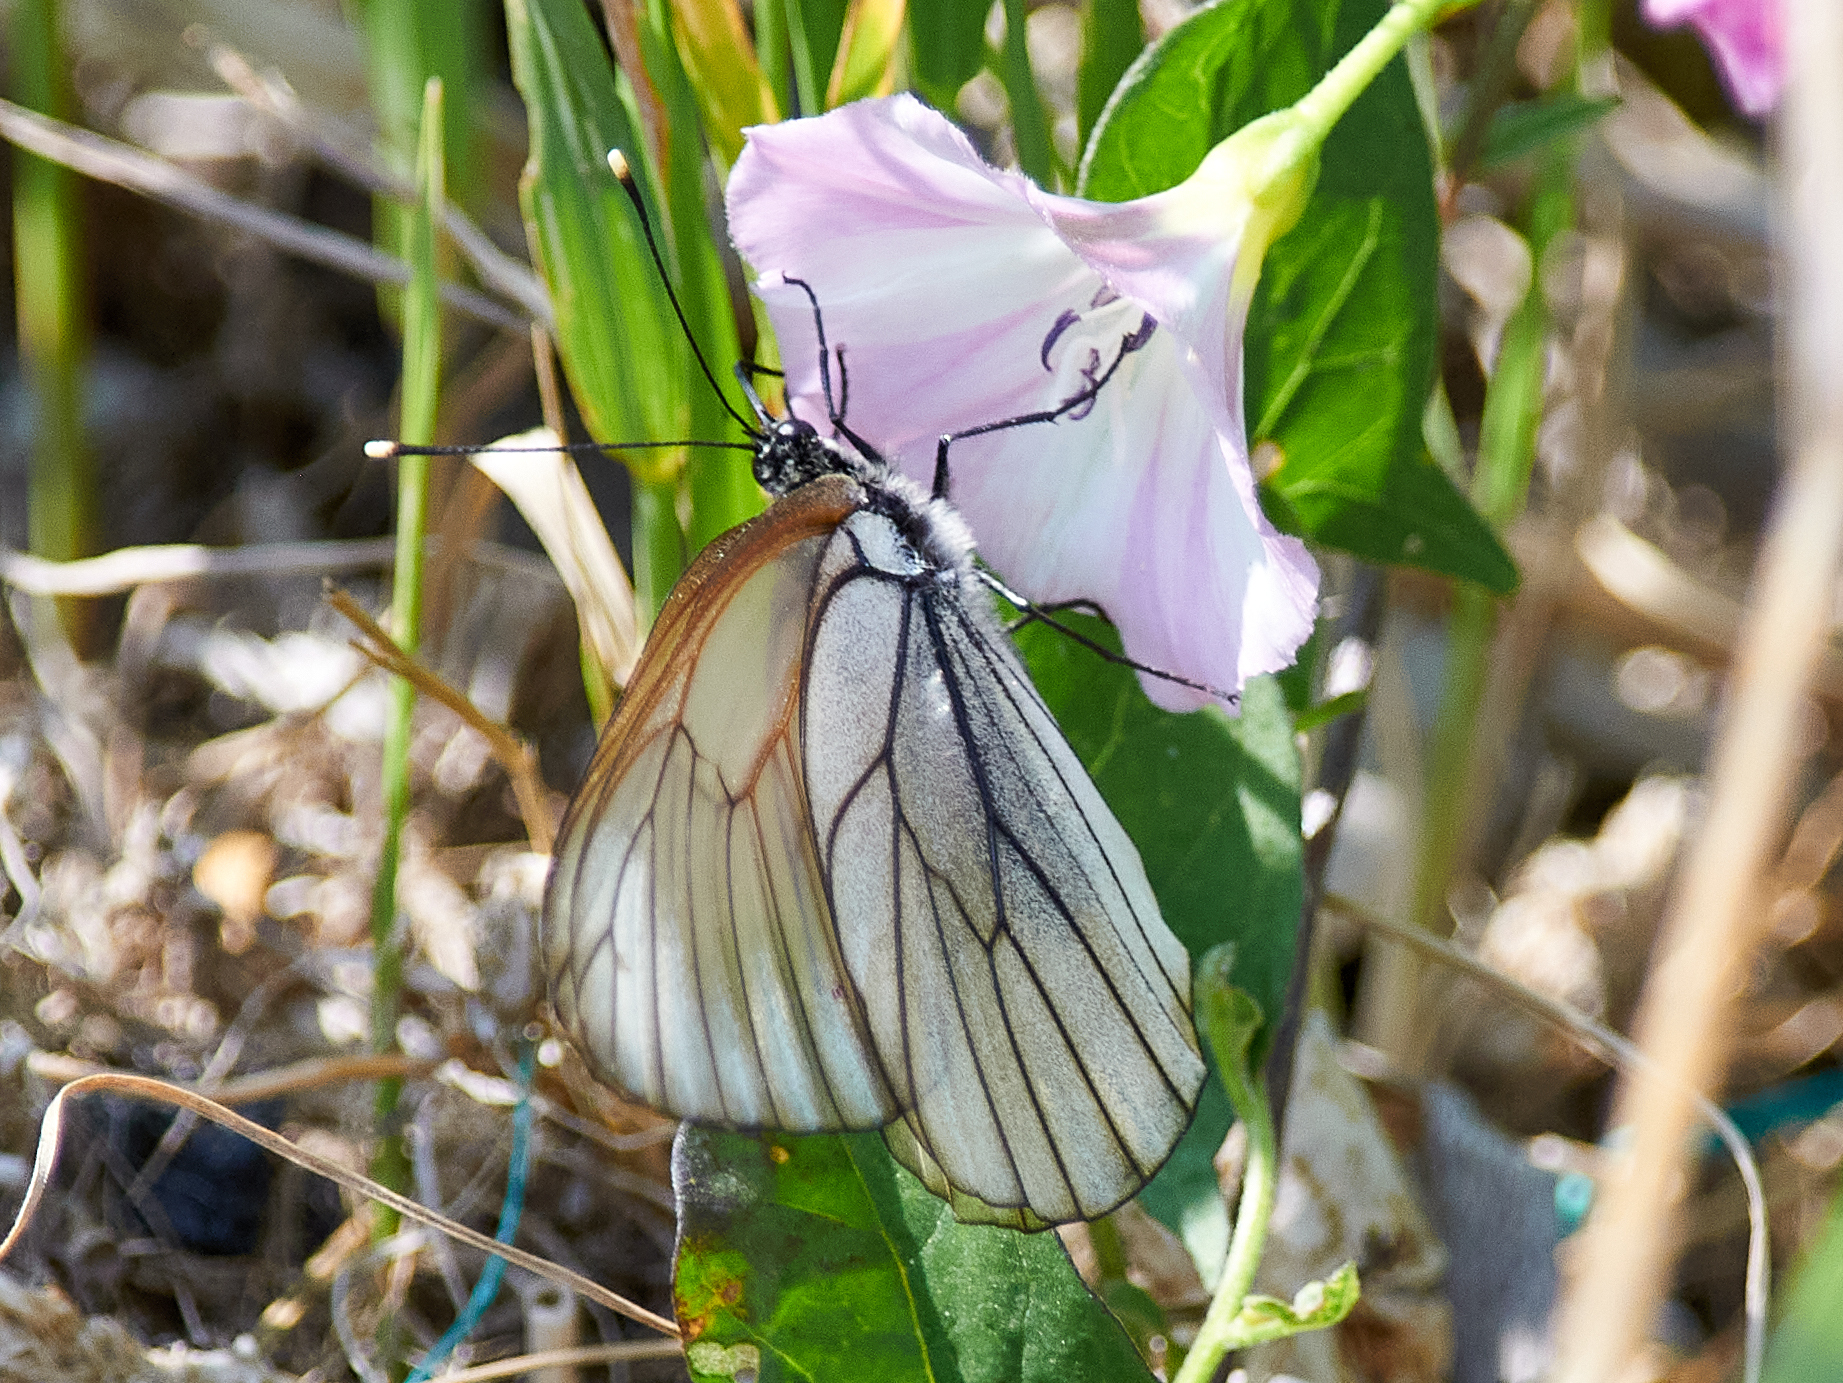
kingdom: Animalia
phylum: Arthropoda
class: Insecta
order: Lepidoptera
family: Pieridae
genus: Aporia
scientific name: Aporia crataegi
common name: Black-veined white
